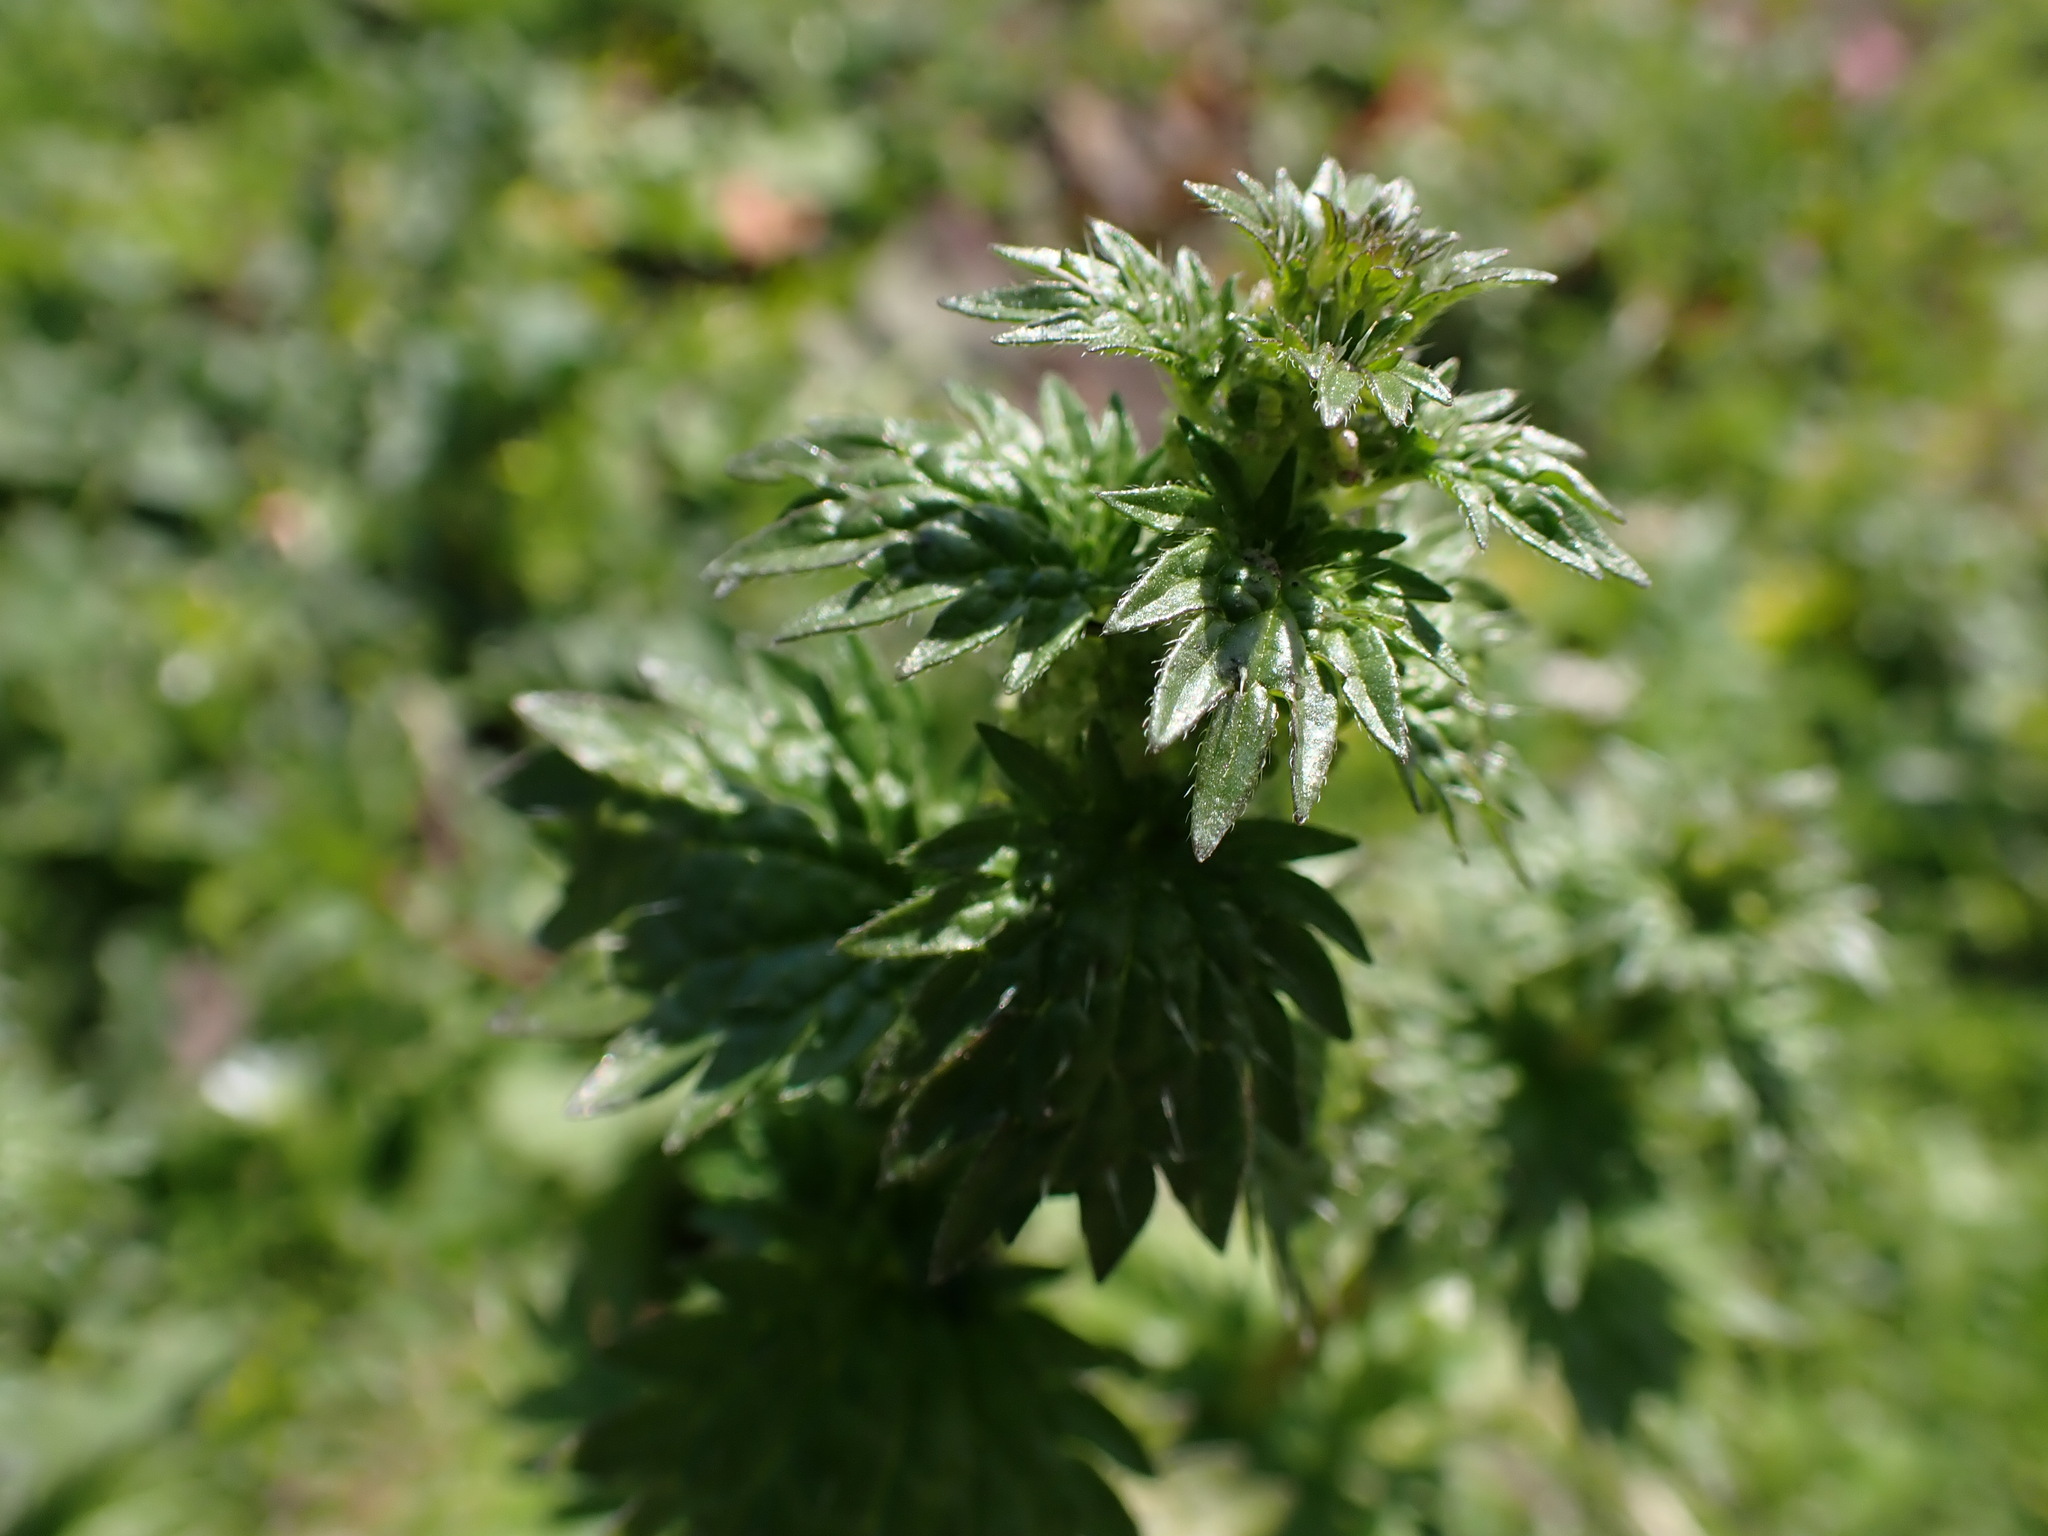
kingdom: Plantae
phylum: Tracheophyta
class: Magnoliopsida
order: Lamiales
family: Lamiaceae
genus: Lamium
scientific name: Lamium purpureum
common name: Red dead-nettle
